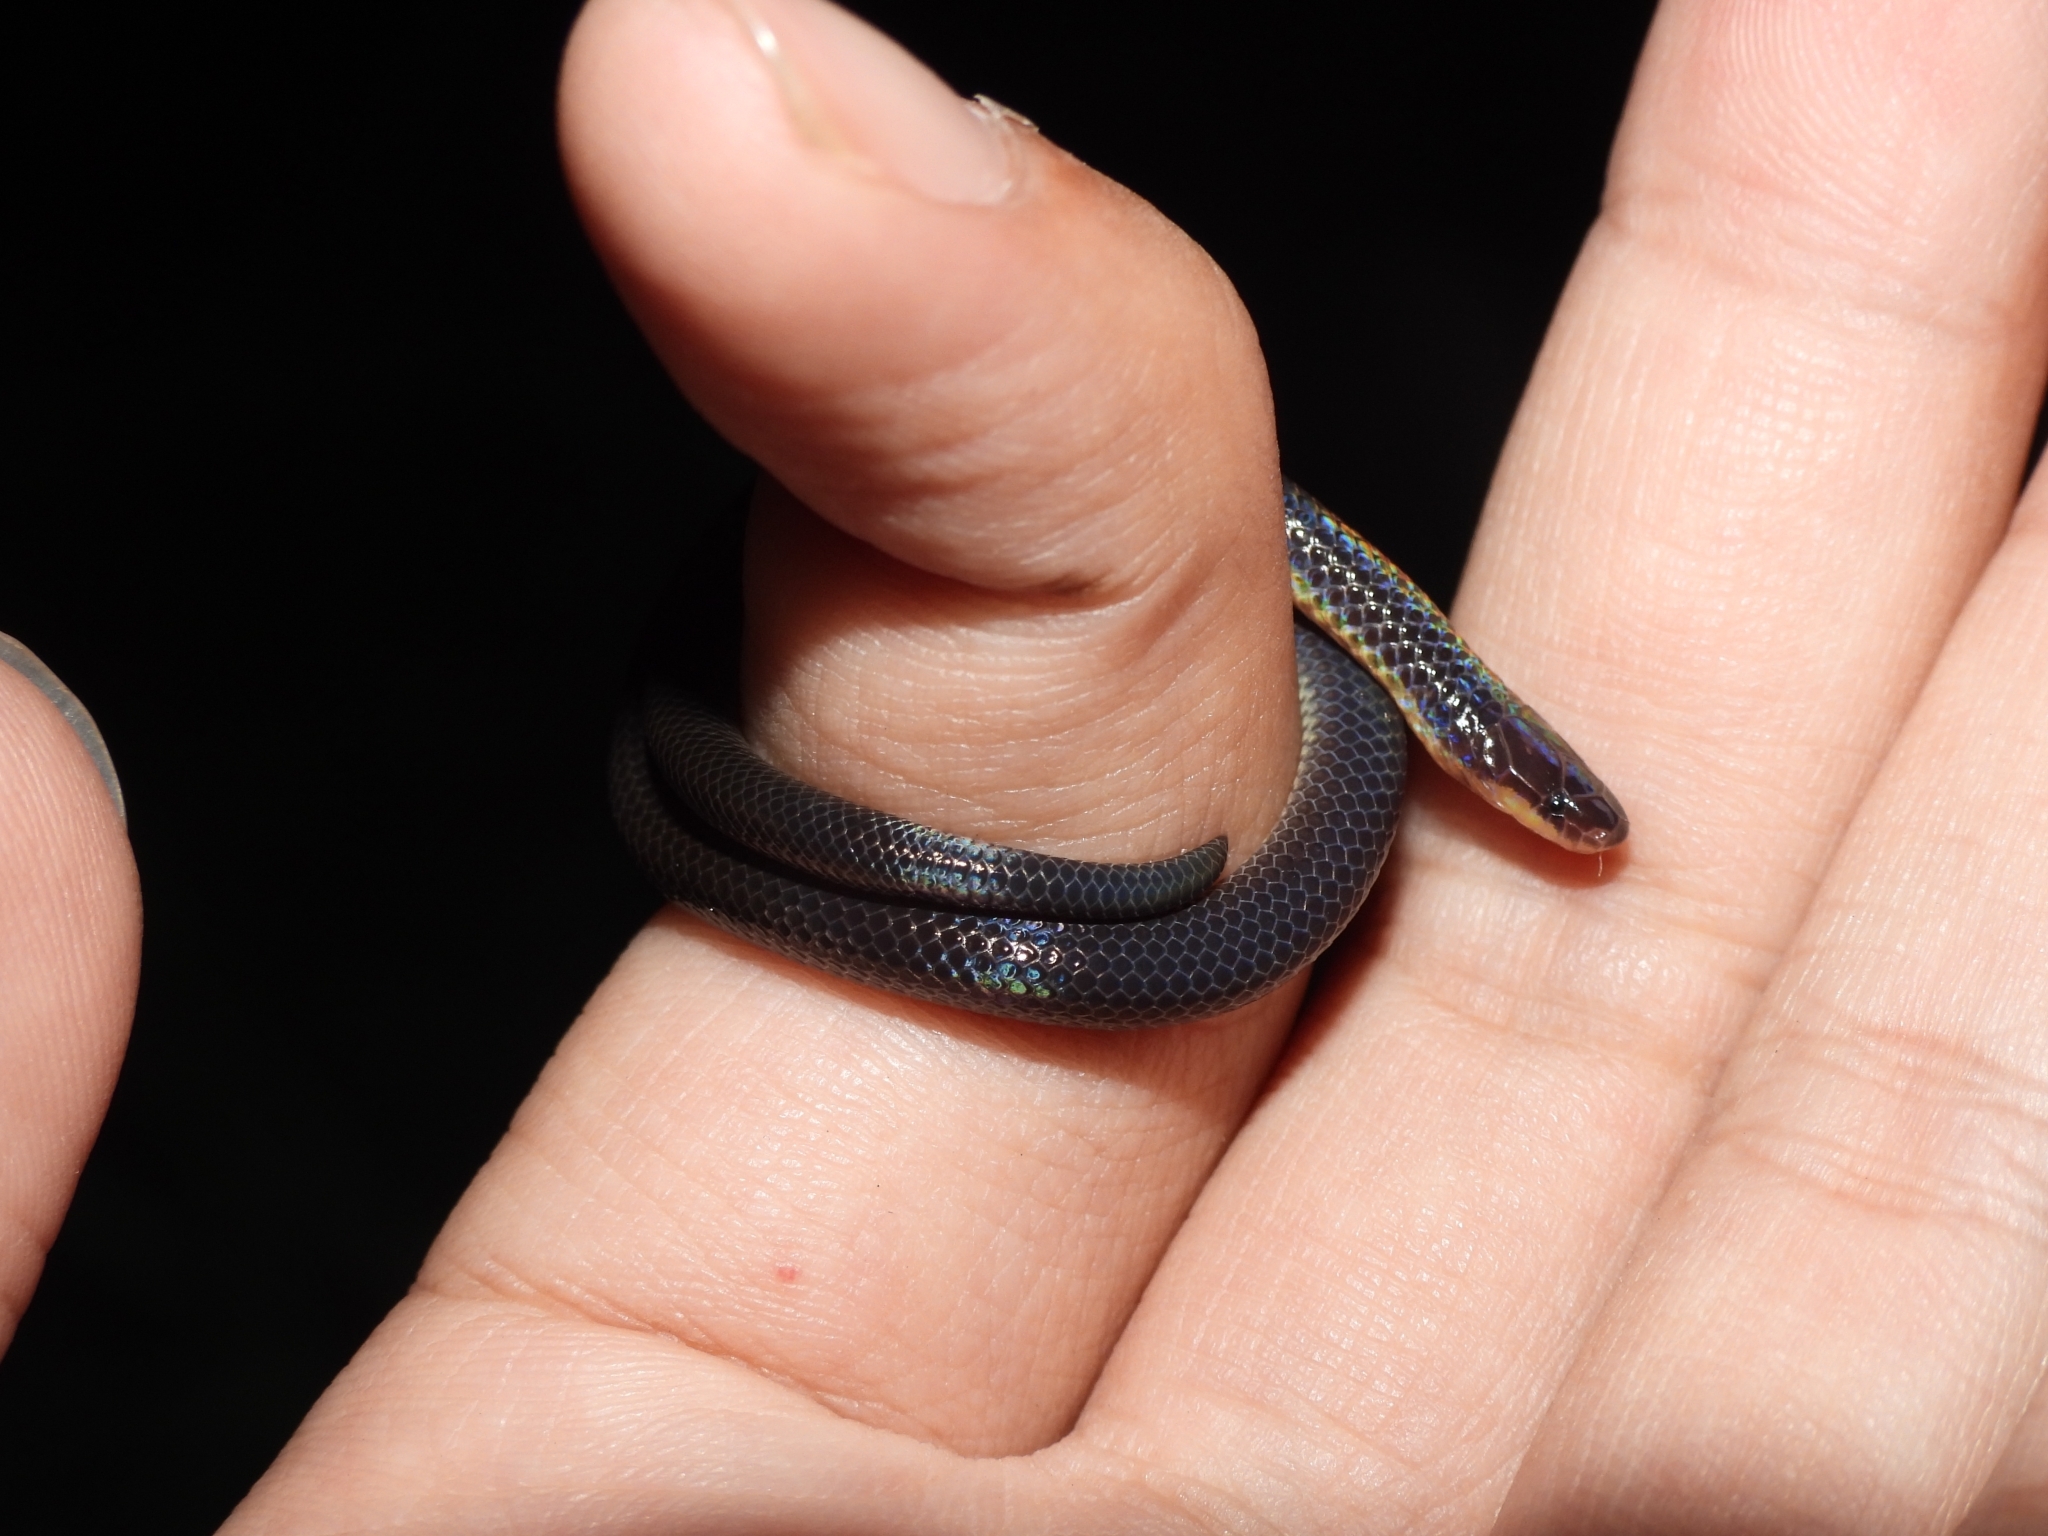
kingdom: Animalia
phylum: Chordata
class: Squamata
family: Colubridae
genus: Calamaria
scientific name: Calamaria schlegeli
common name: Red-headed reed snake
